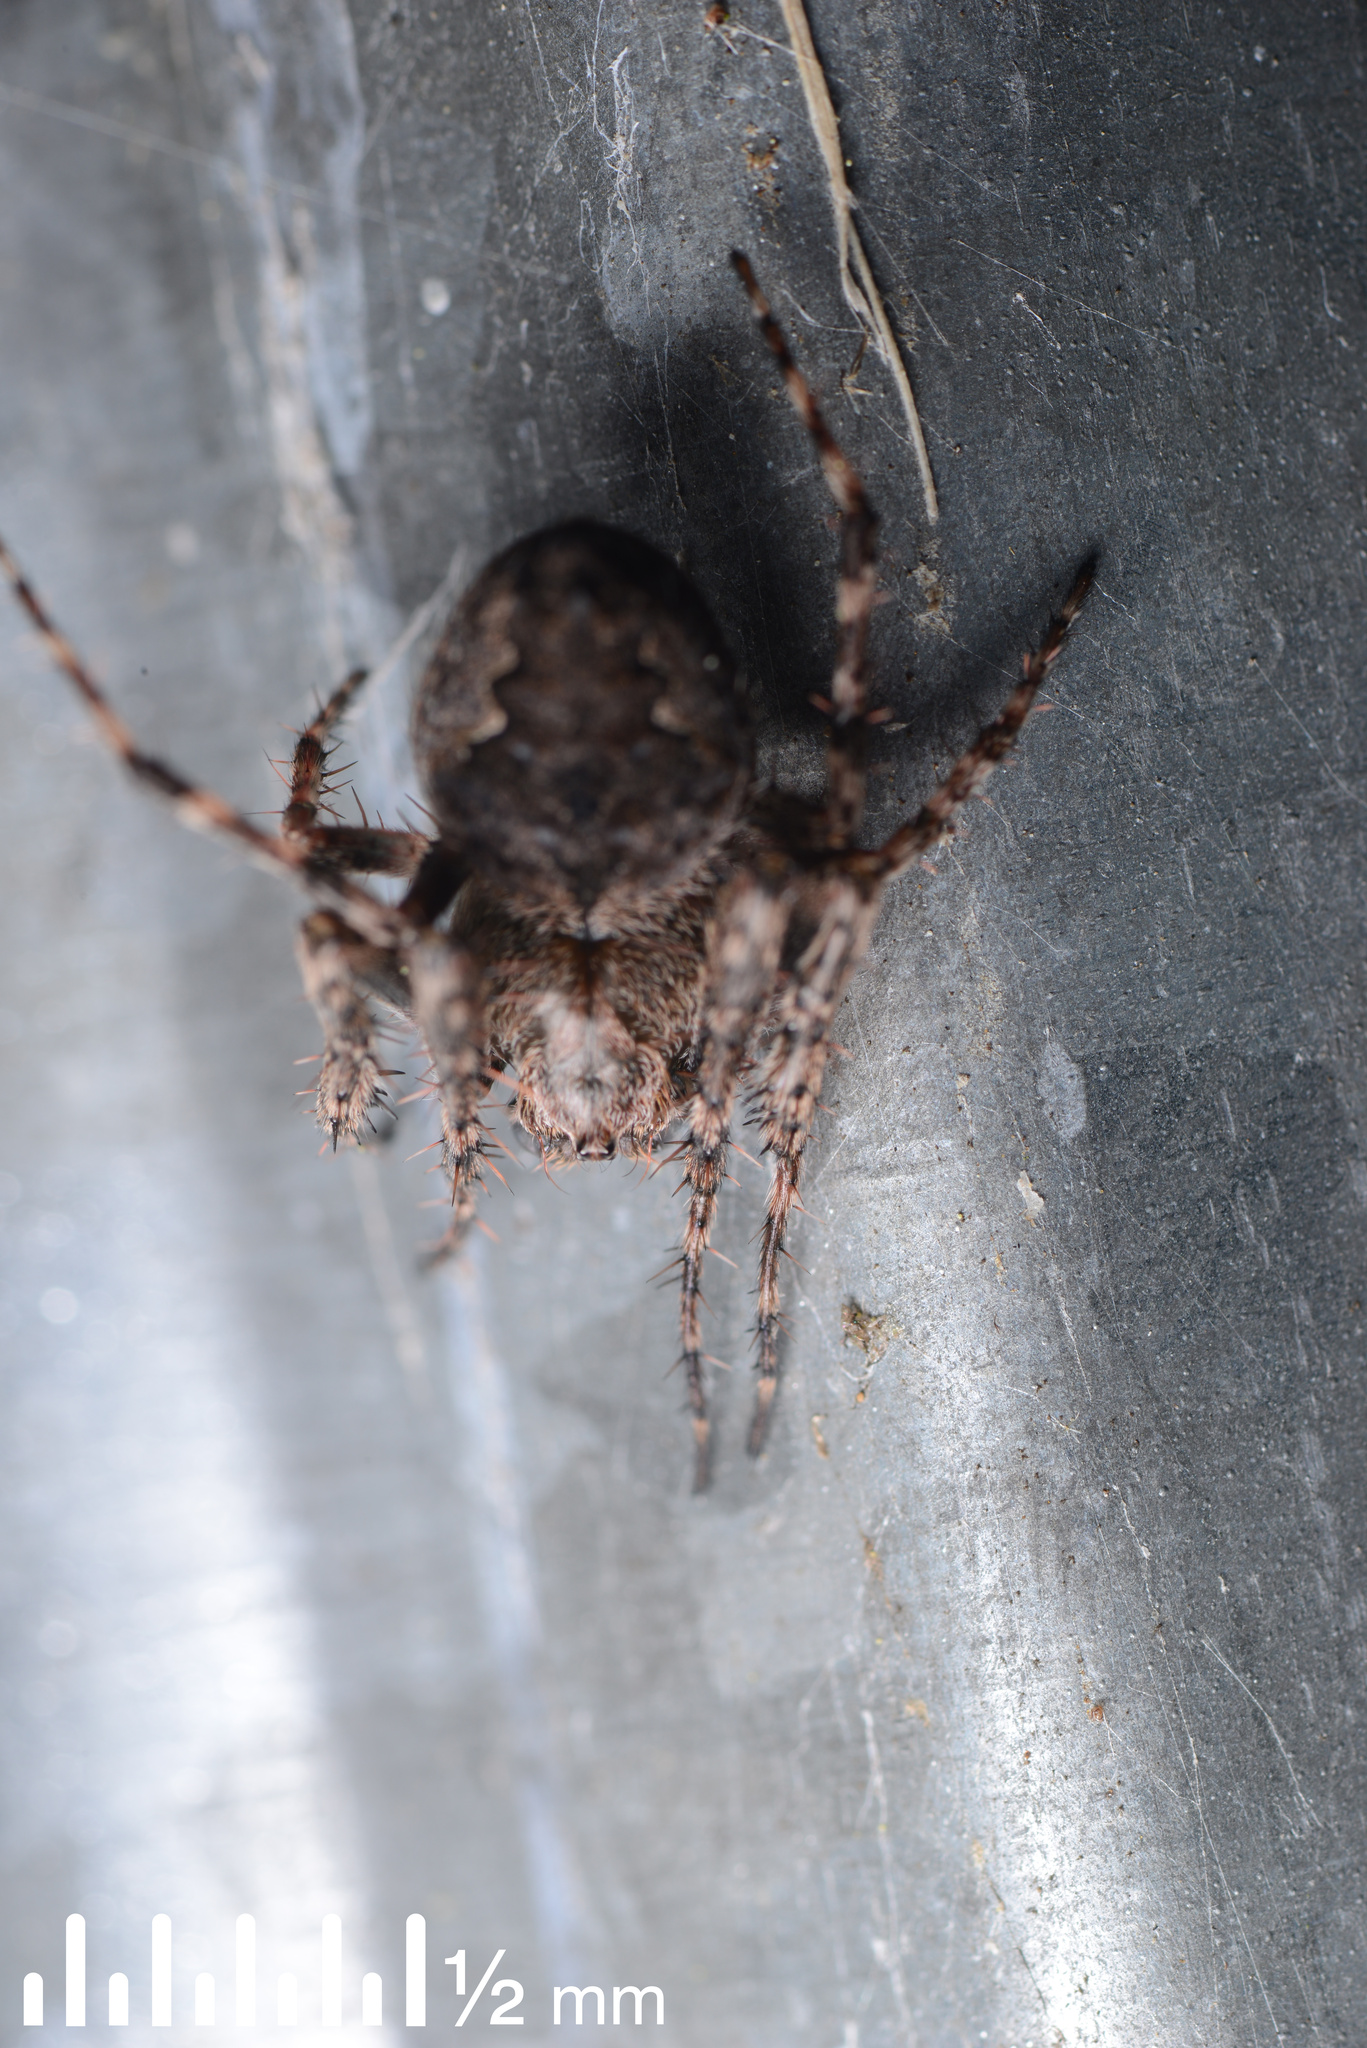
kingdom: Animalia
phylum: Arthropoda
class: Arachnida
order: Araneae
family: Araneidae
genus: Eriophora
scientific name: Eriophora pustulosa
